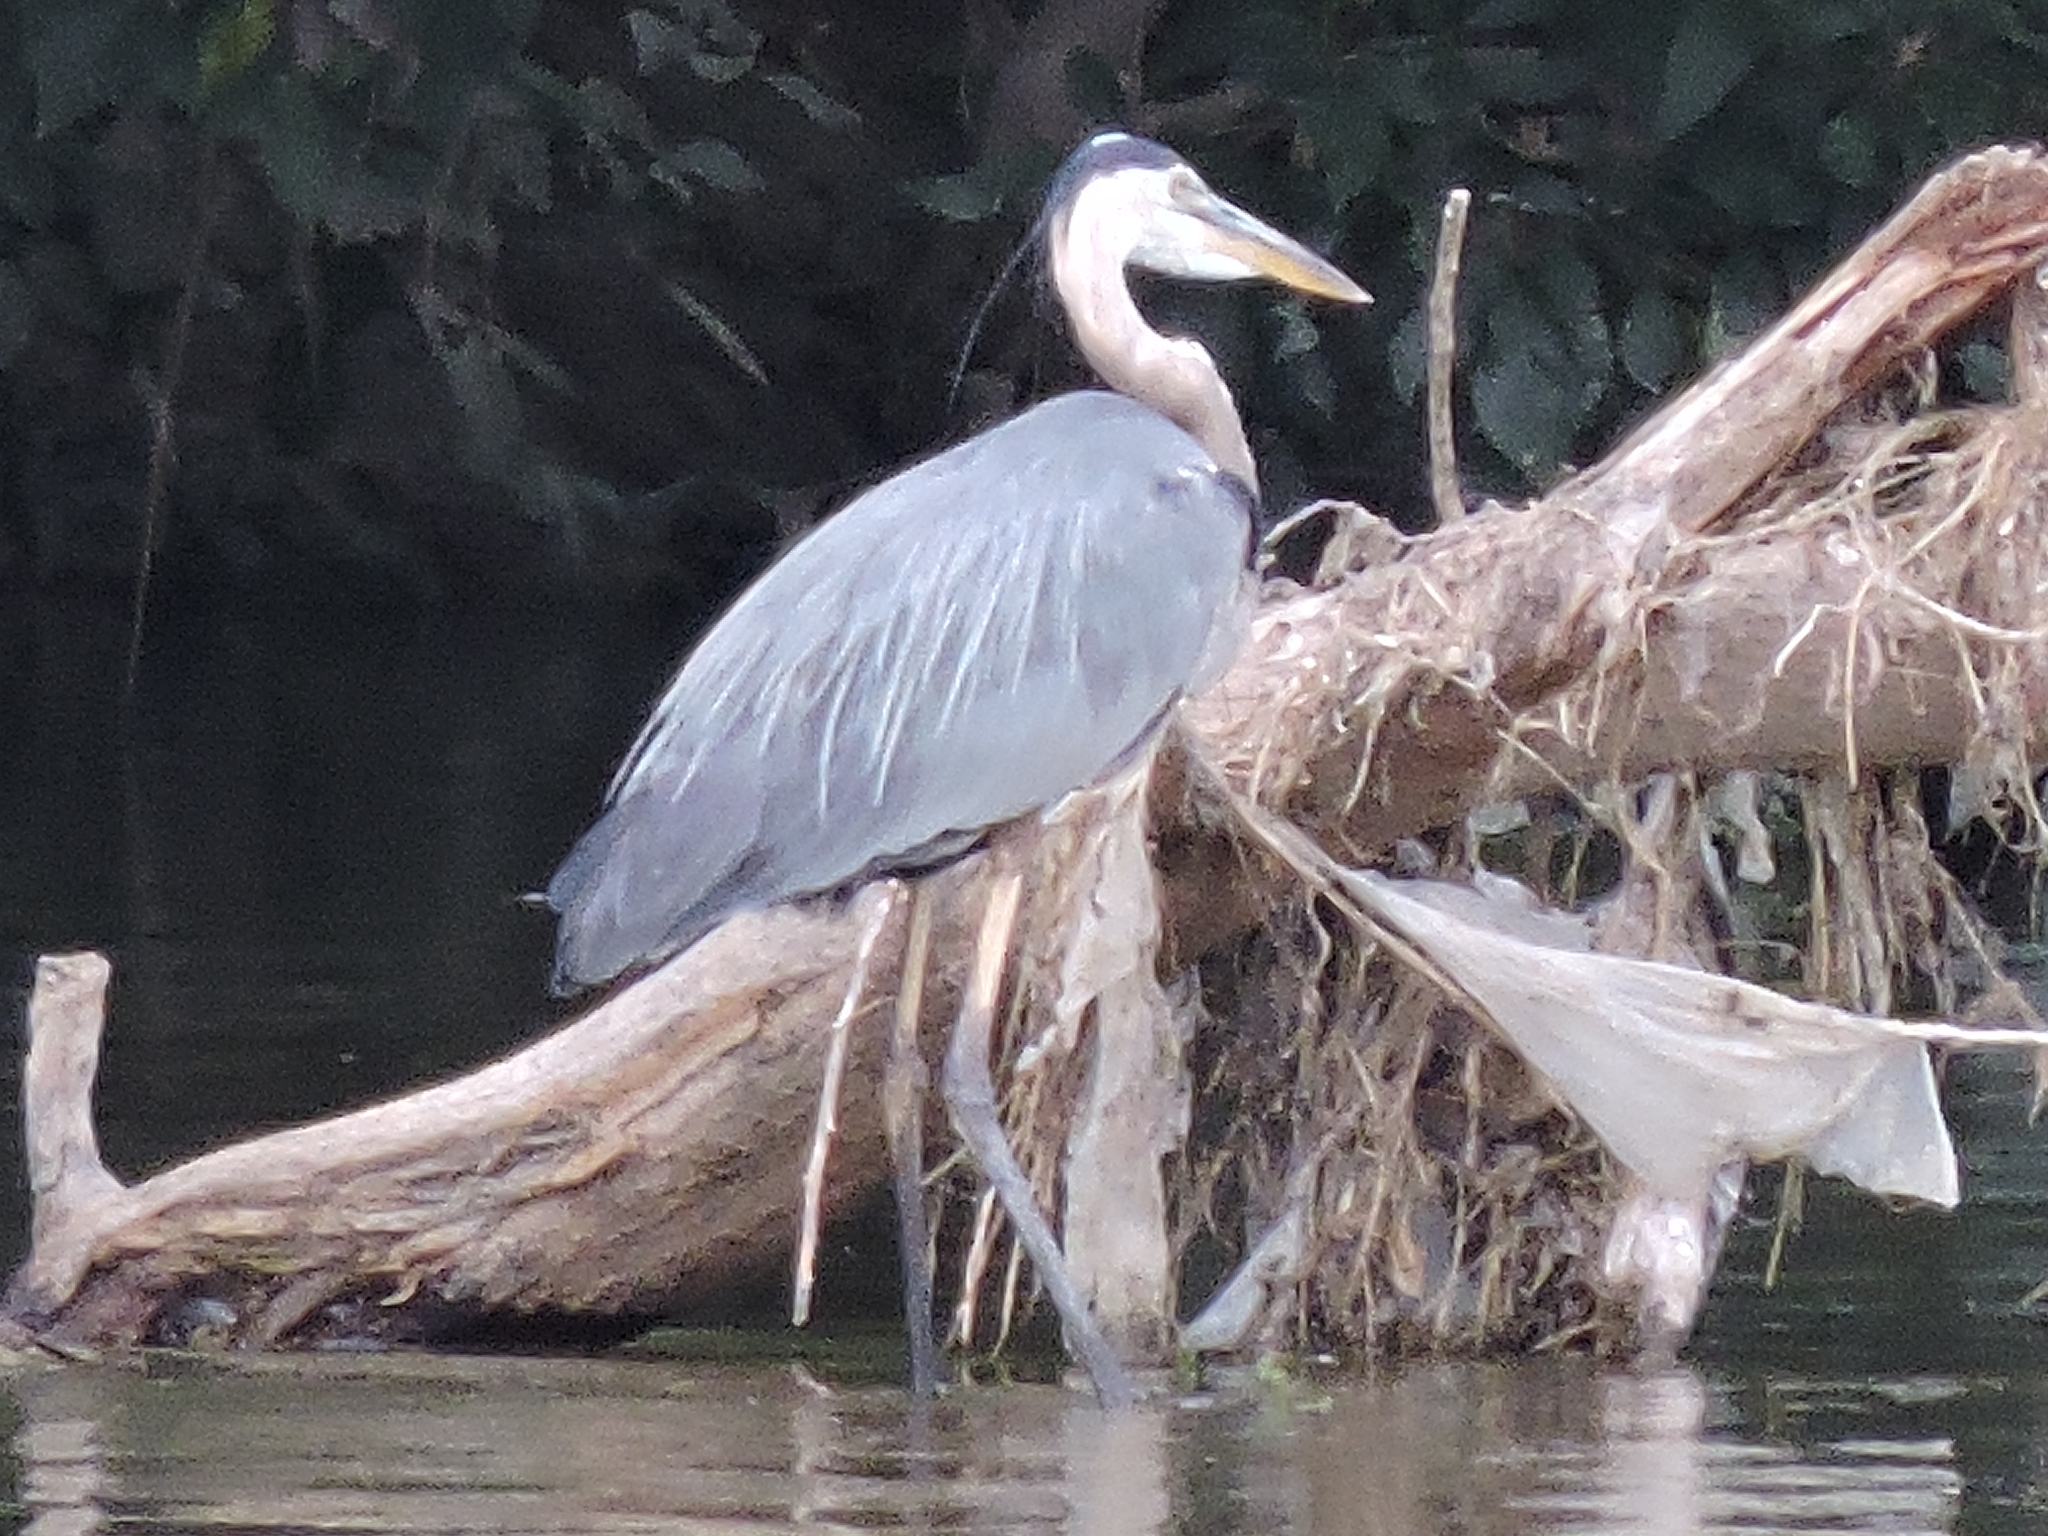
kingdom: Animalia
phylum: Chordata
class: Aves
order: Pelecaniformes
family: Ardeidae
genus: Ardea
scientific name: Ardea herodias
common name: Great blue heron
